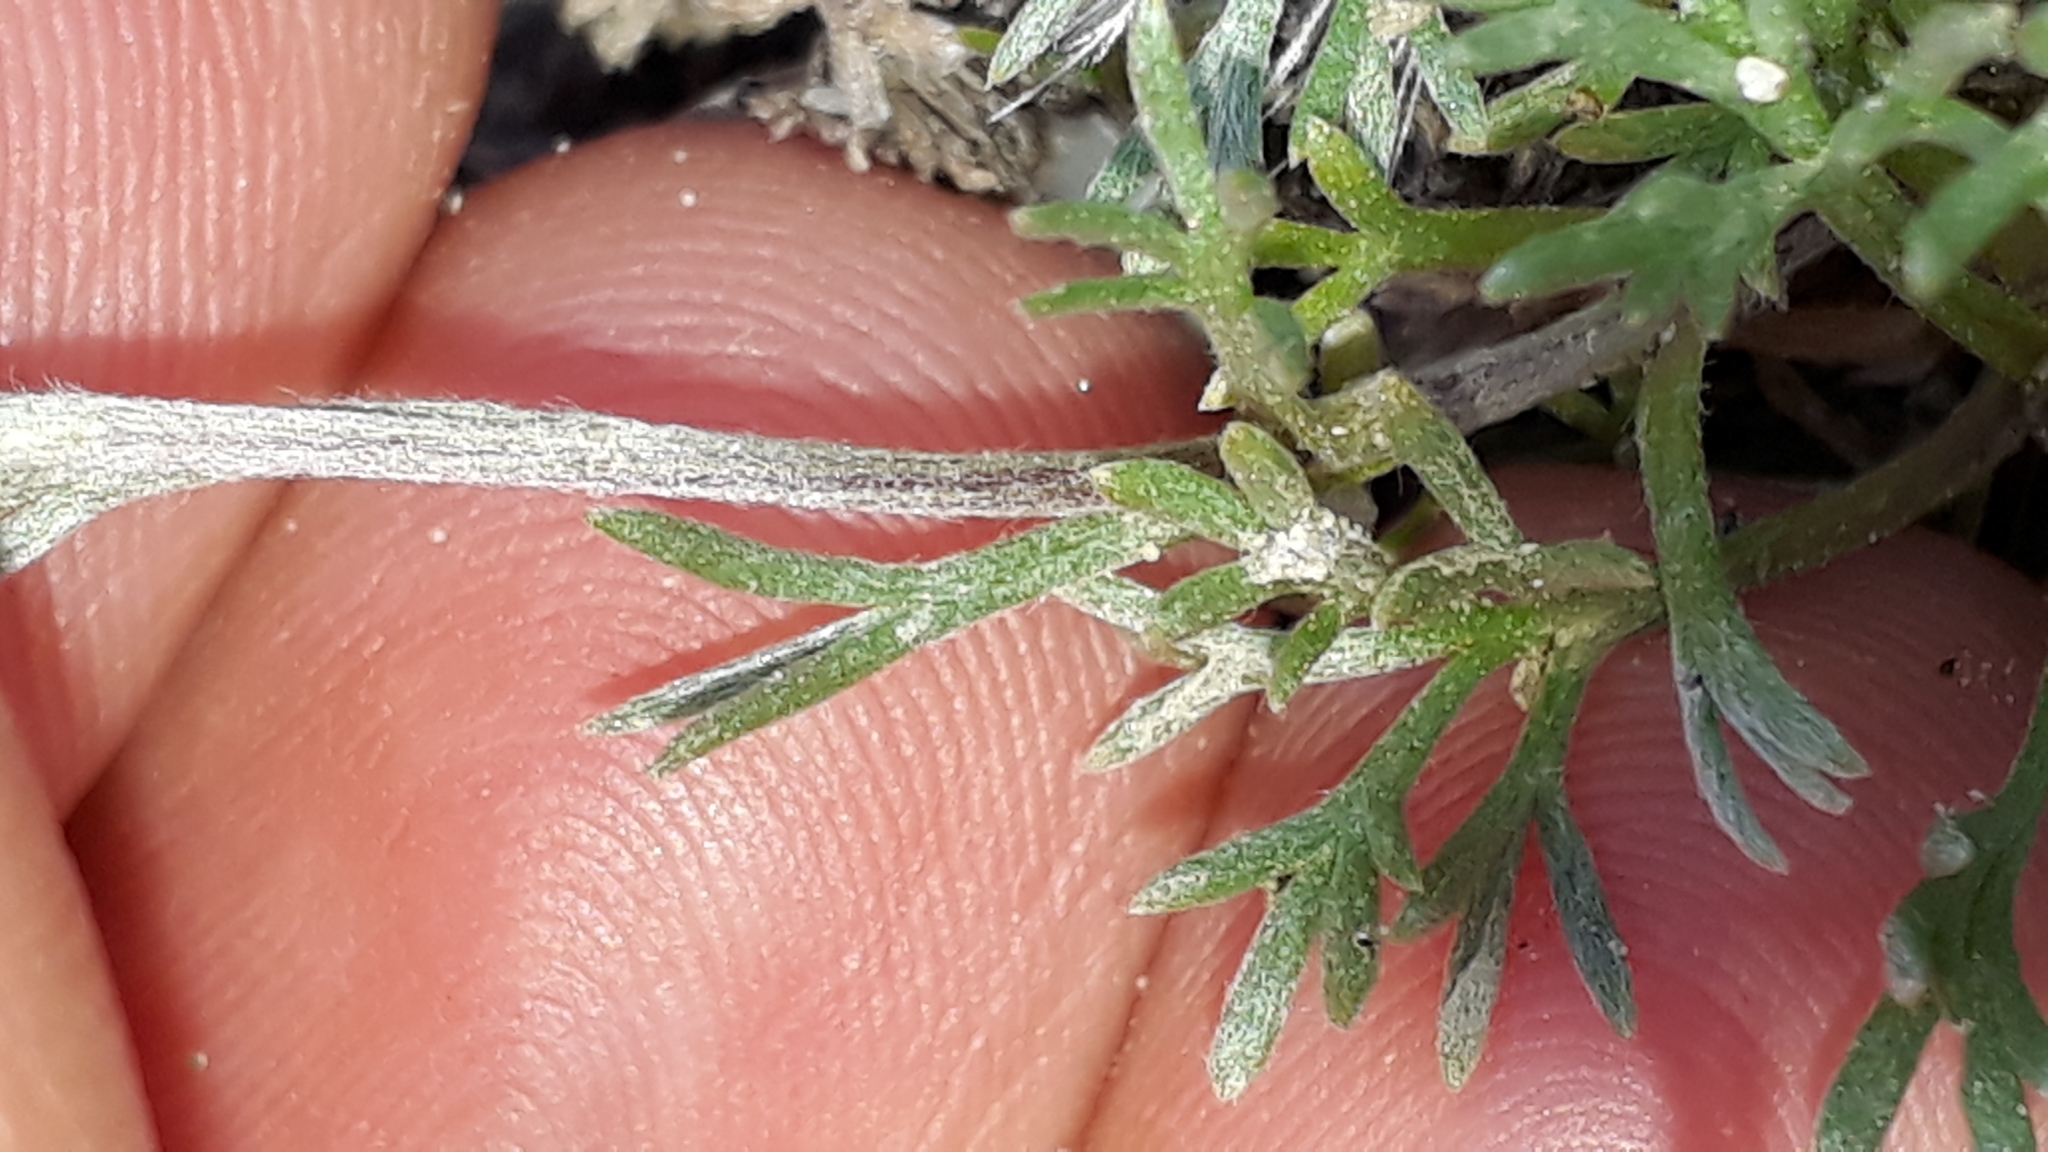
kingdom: Plantae
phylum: Tracheophyta
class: Magnoliopsida
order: Asterales
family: Asteraceae
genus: Artemisia
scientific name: Artemisia umbelliformis
